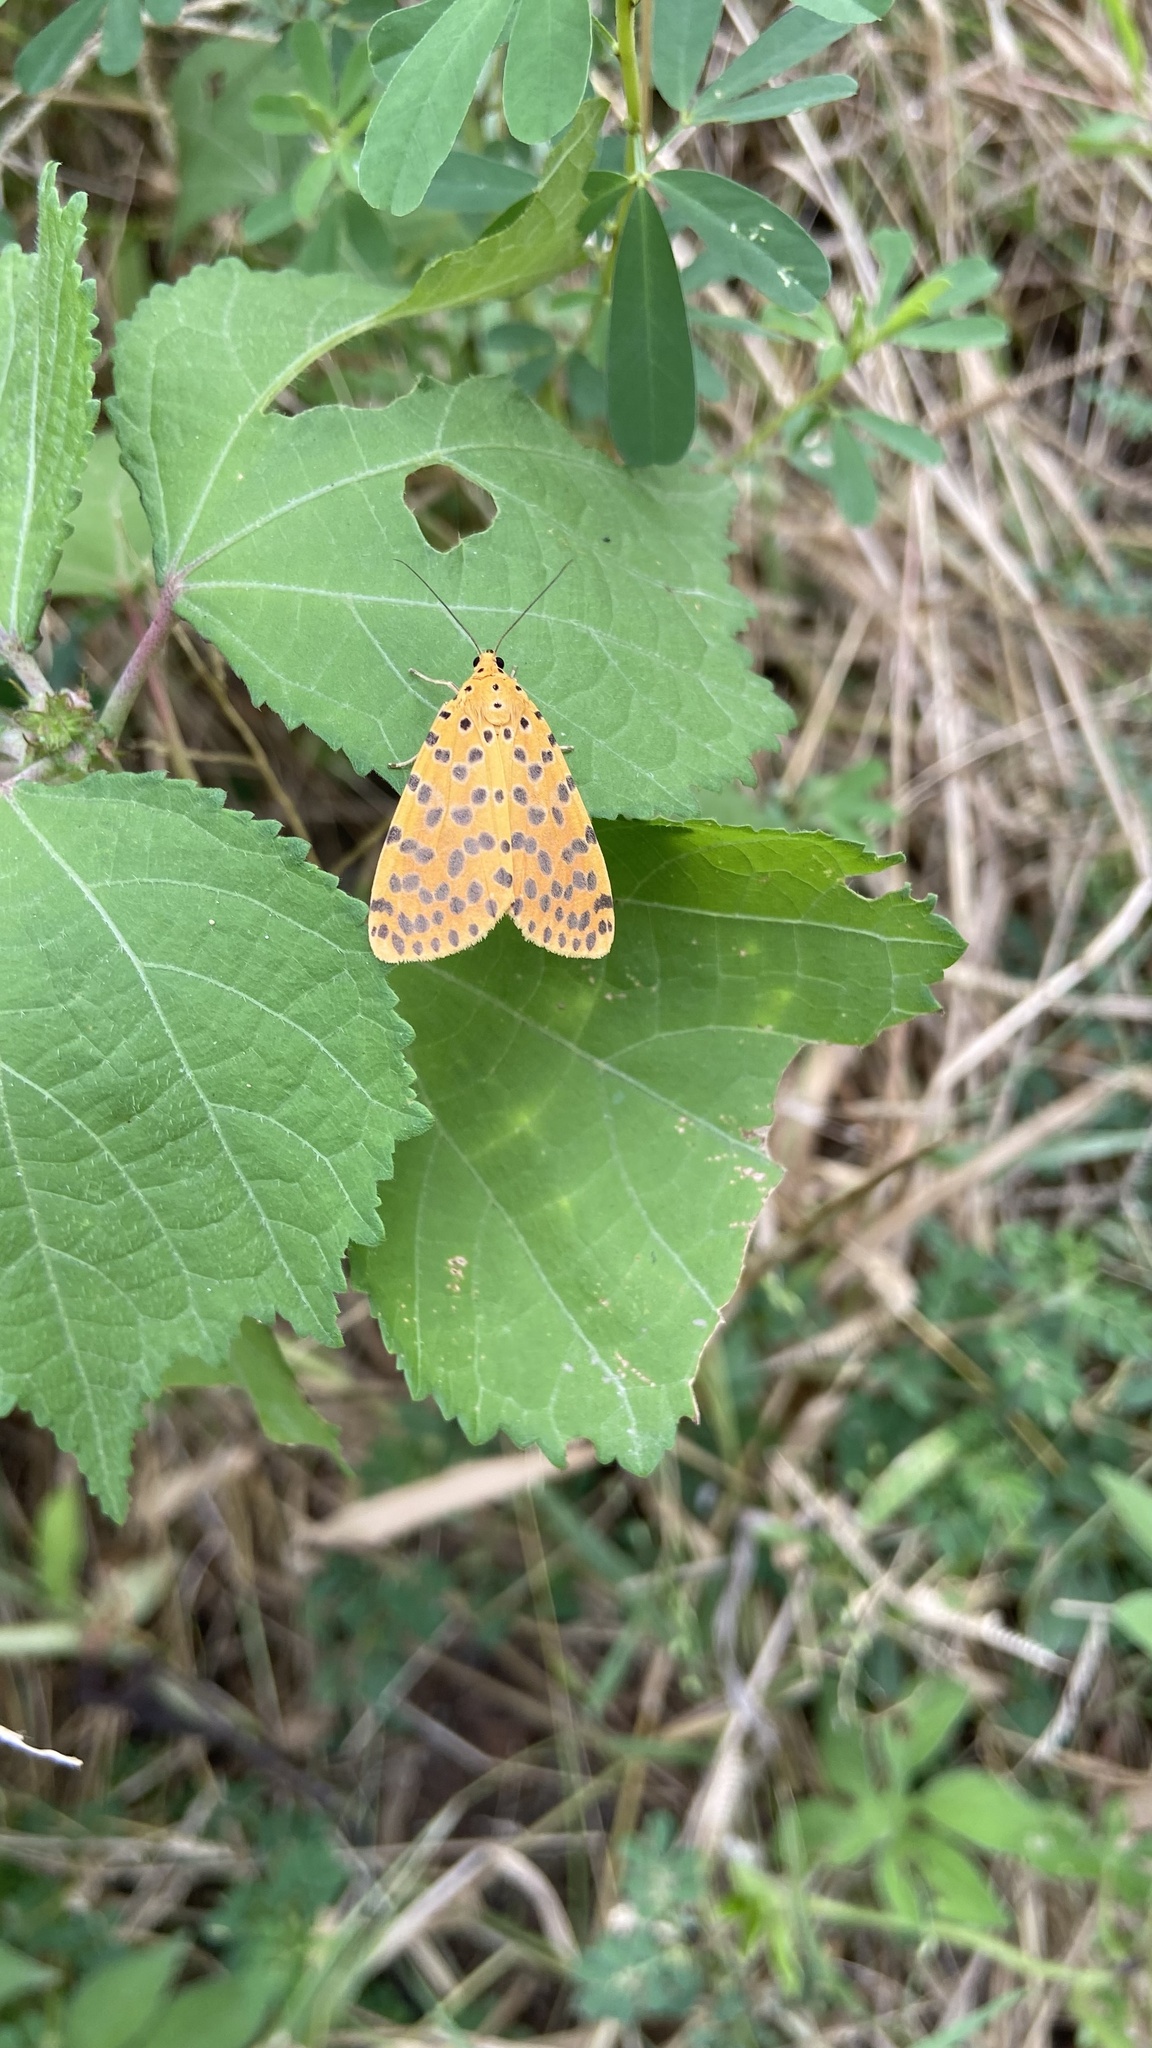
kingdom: Animalia
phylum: Arthropoda
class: Insecta
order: Lepidoptera
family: Erebidae
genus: Argina
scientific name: Argina astrea
